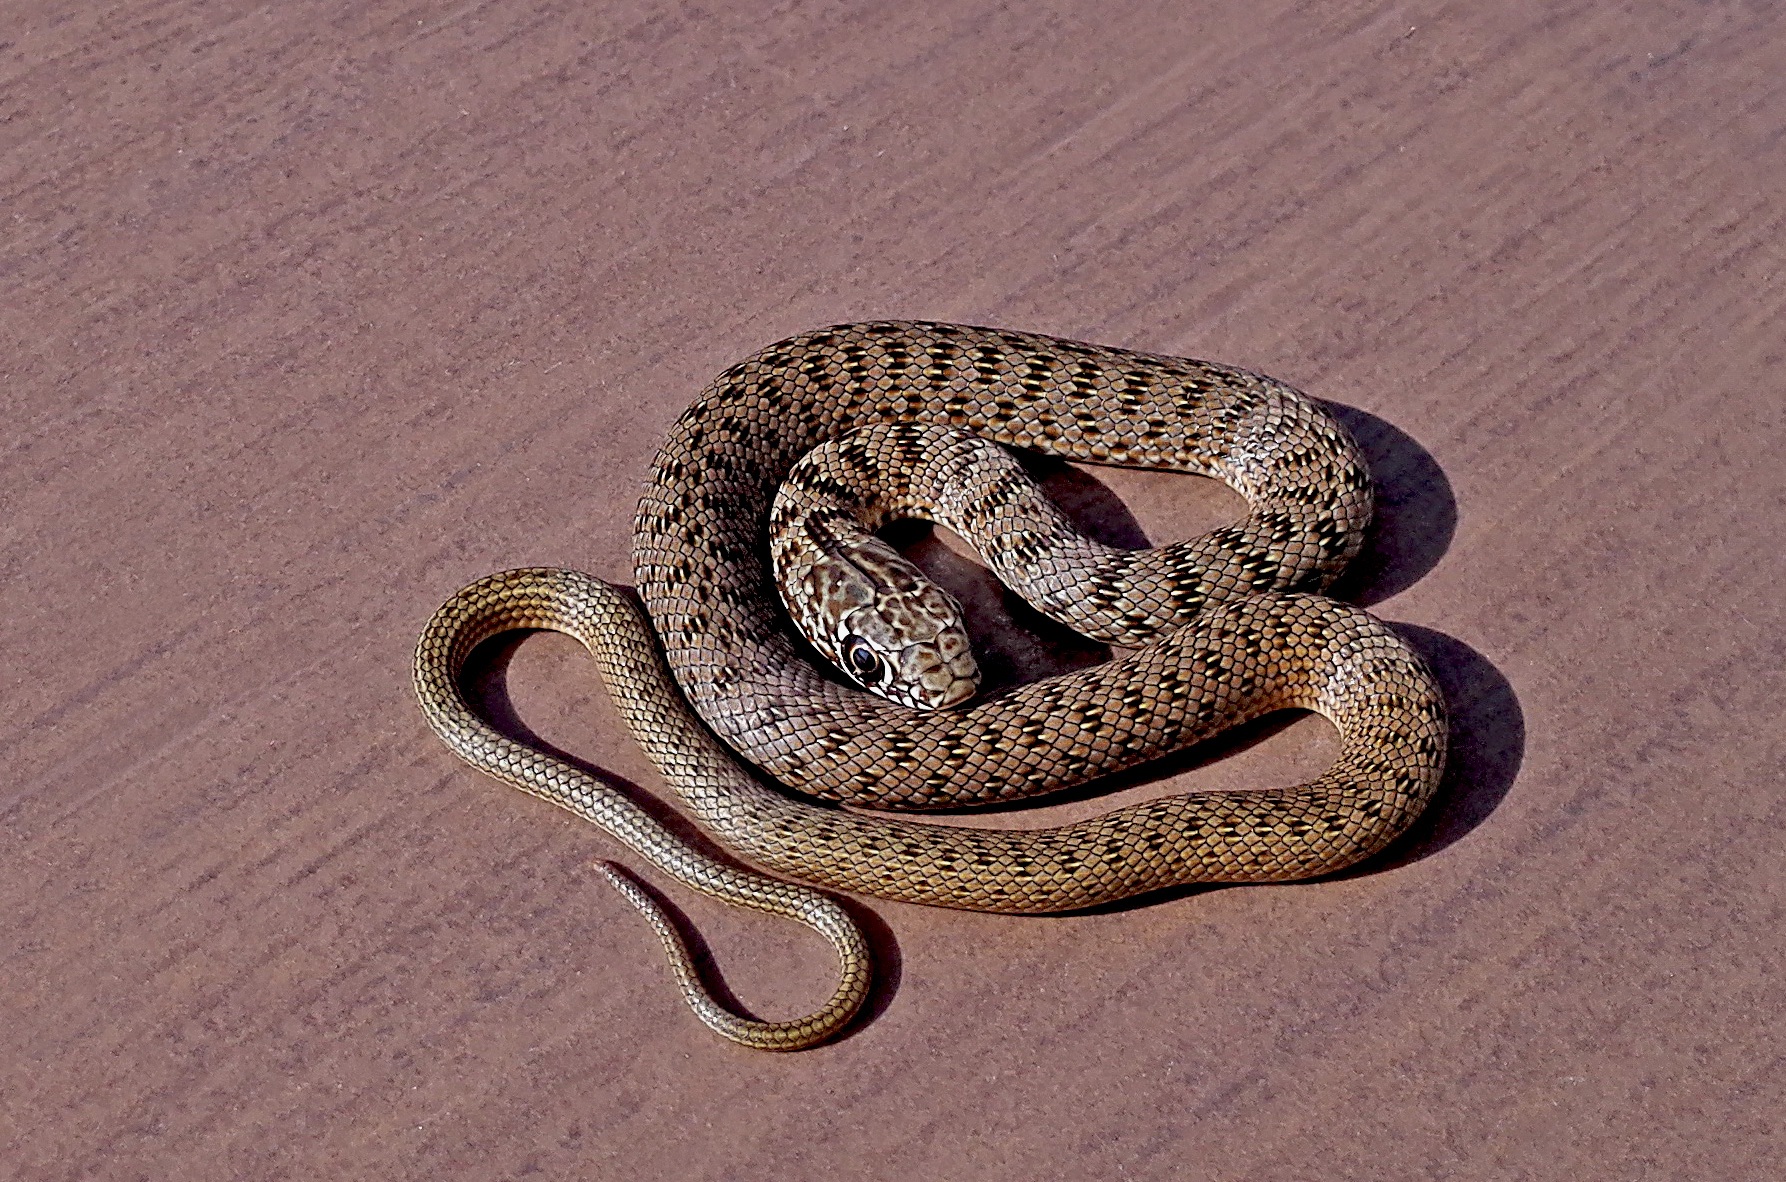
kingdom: Animalia
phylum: Chordata
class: Squamata
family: Colubridae
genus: Dolichophis
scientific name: Dolichophis caspius
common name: Large whip snake
